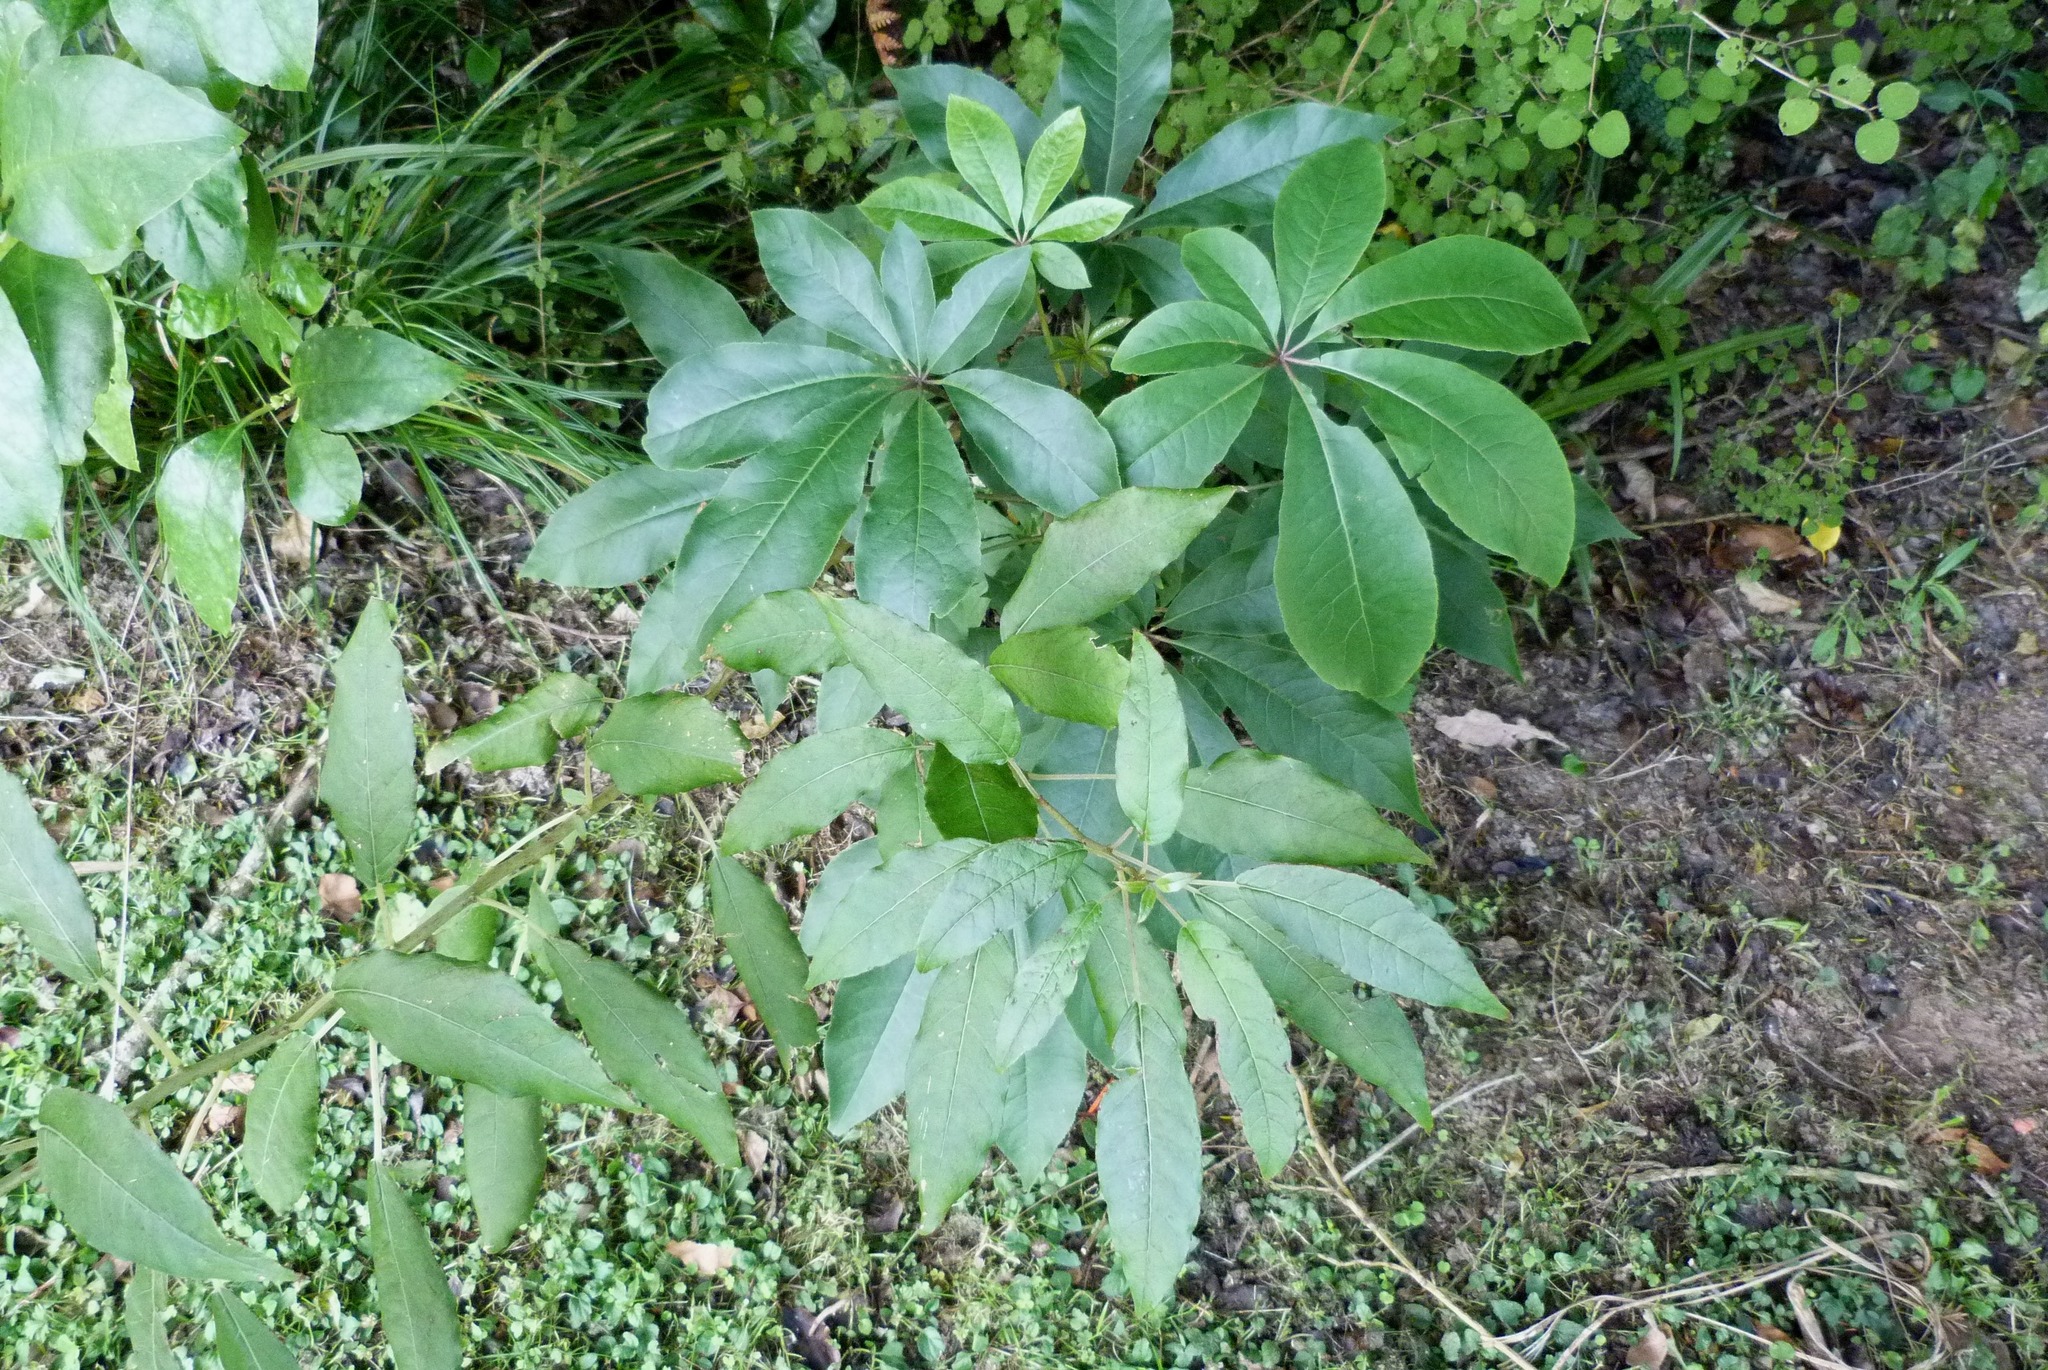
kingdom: Plantae
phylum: Tracheophyta
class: Magnoliopsida
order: Apiales
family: Araliaceae
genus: Schefflera
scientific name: Schefflera digitata
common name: Pate
